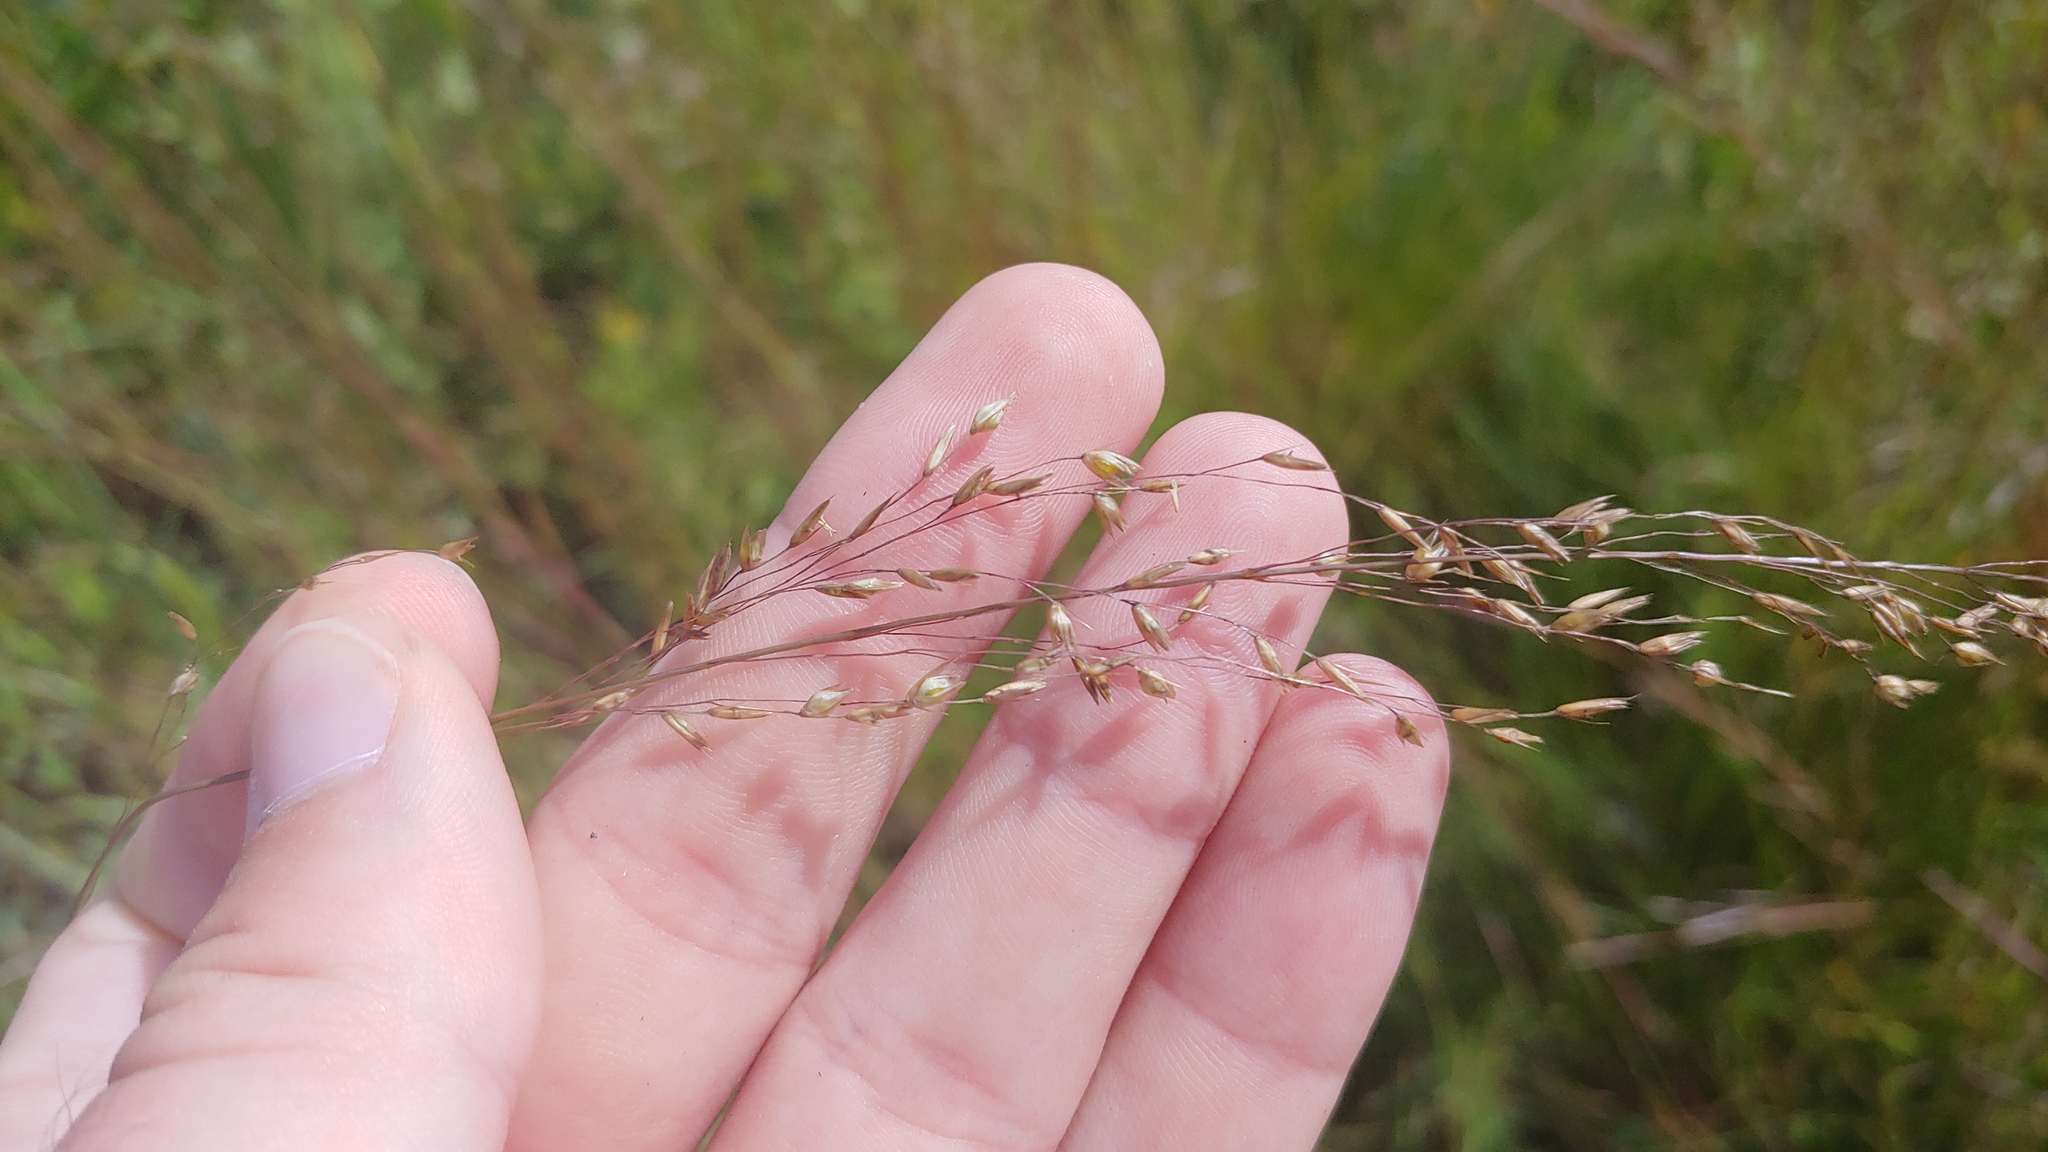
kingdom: Plantae
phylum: Tracheophyta
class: Liliopsida
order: Poales
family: Poaceae
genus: Sporobolus
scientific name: Sporobolus heterolepis
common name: Prairie dropseed
